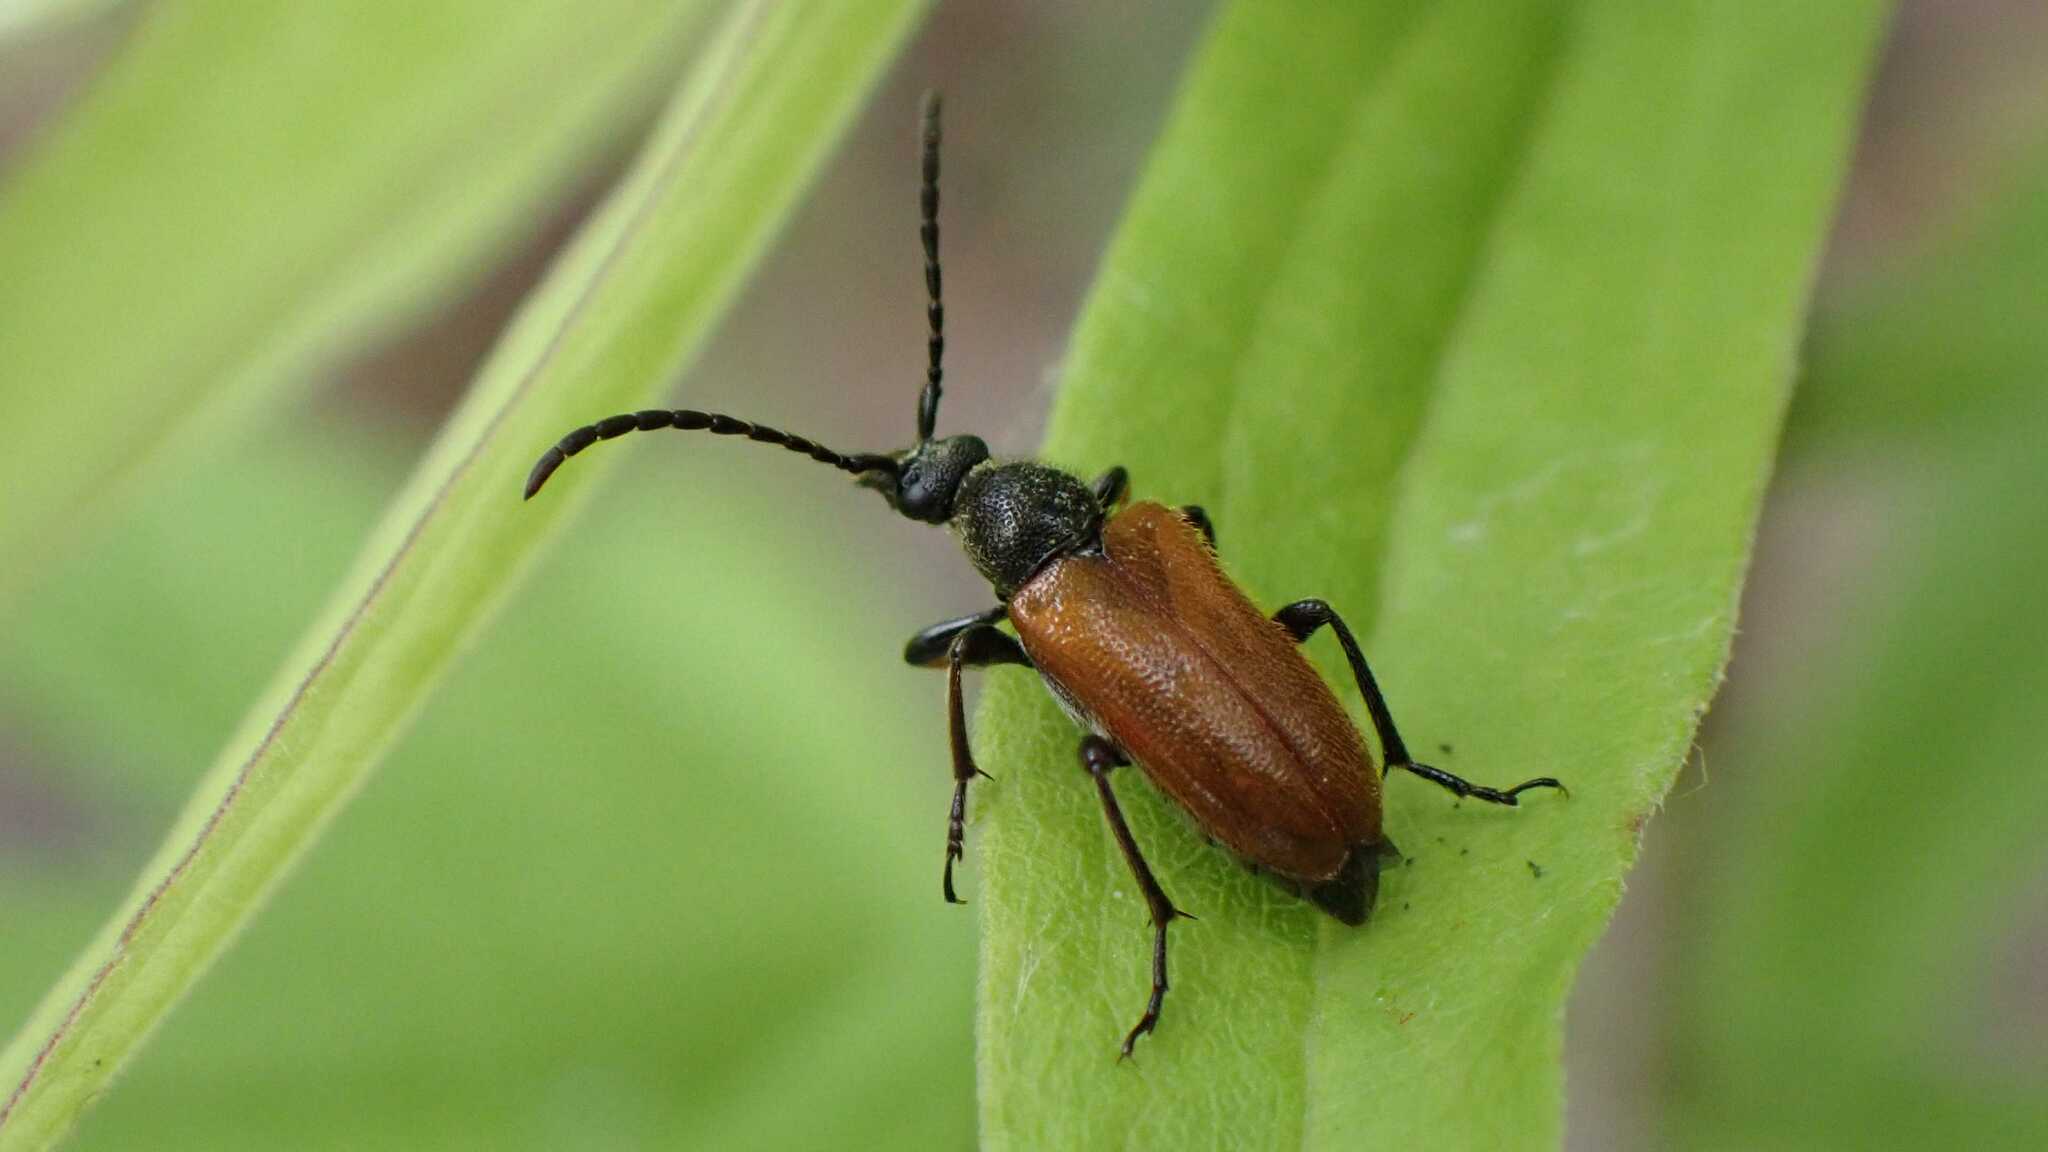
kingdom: Animalia
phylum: Arthropoda
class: Insecta
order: Coleoptera
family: Cerambycidae
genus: Pseudovadonia
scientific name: Pseudovadonia livida
